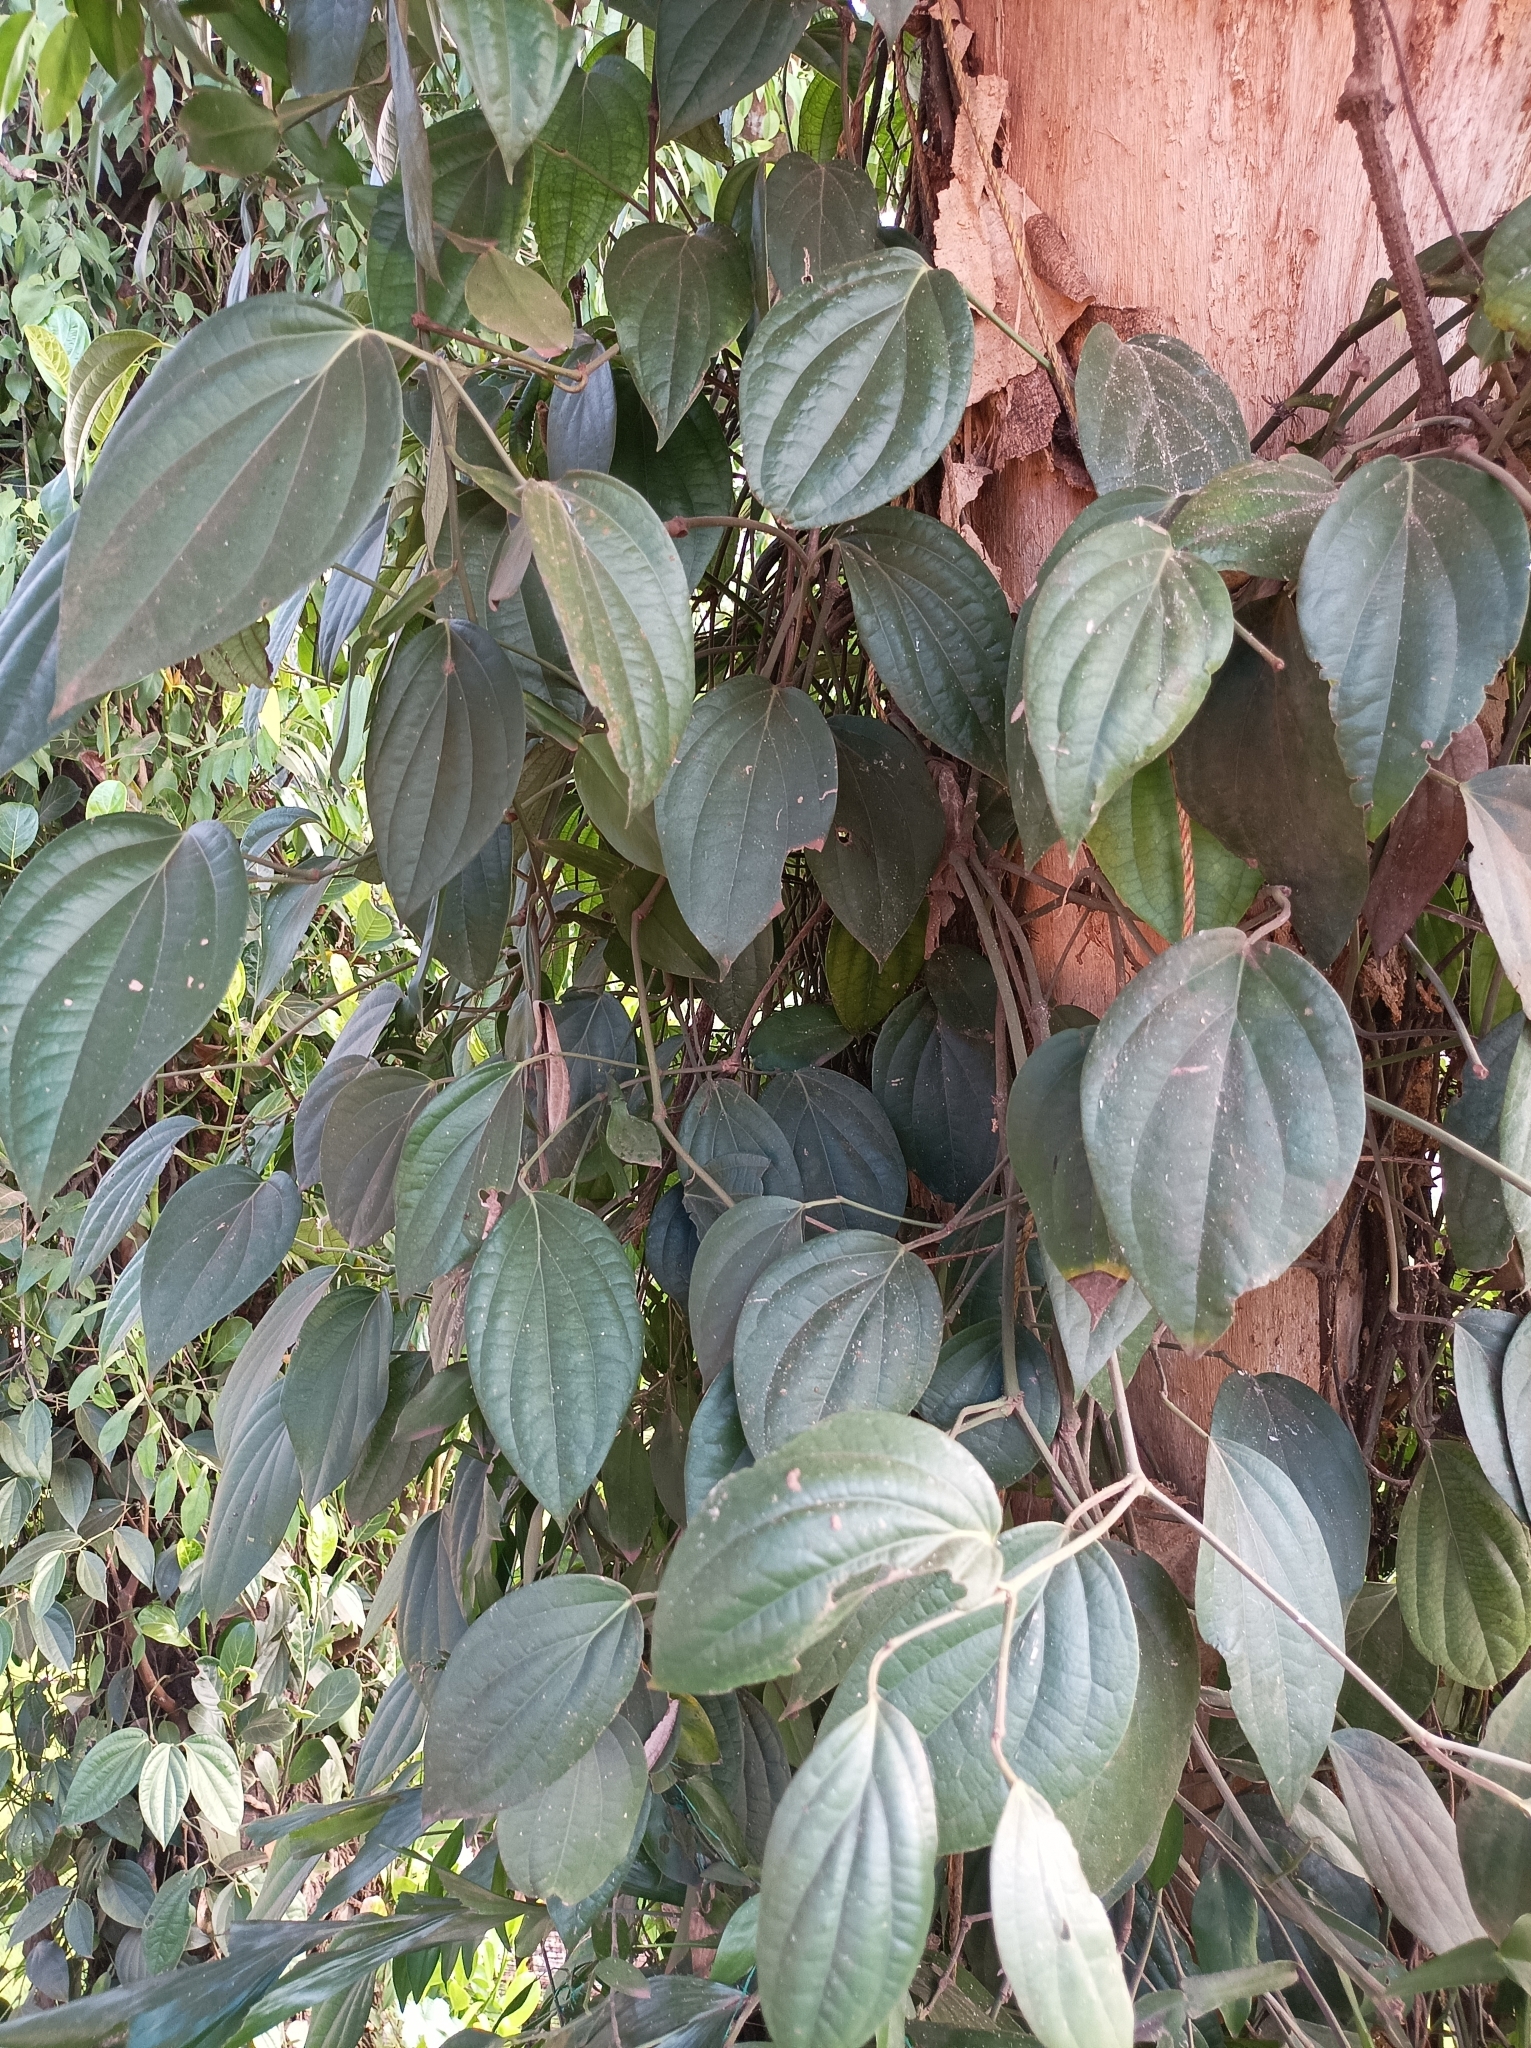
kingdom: Plantae
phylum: Tracheophyta
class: Magnoliopsida
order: Piperales
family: Piperaceae
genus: Piper
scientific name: Piper nigrum
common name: Black pepper
